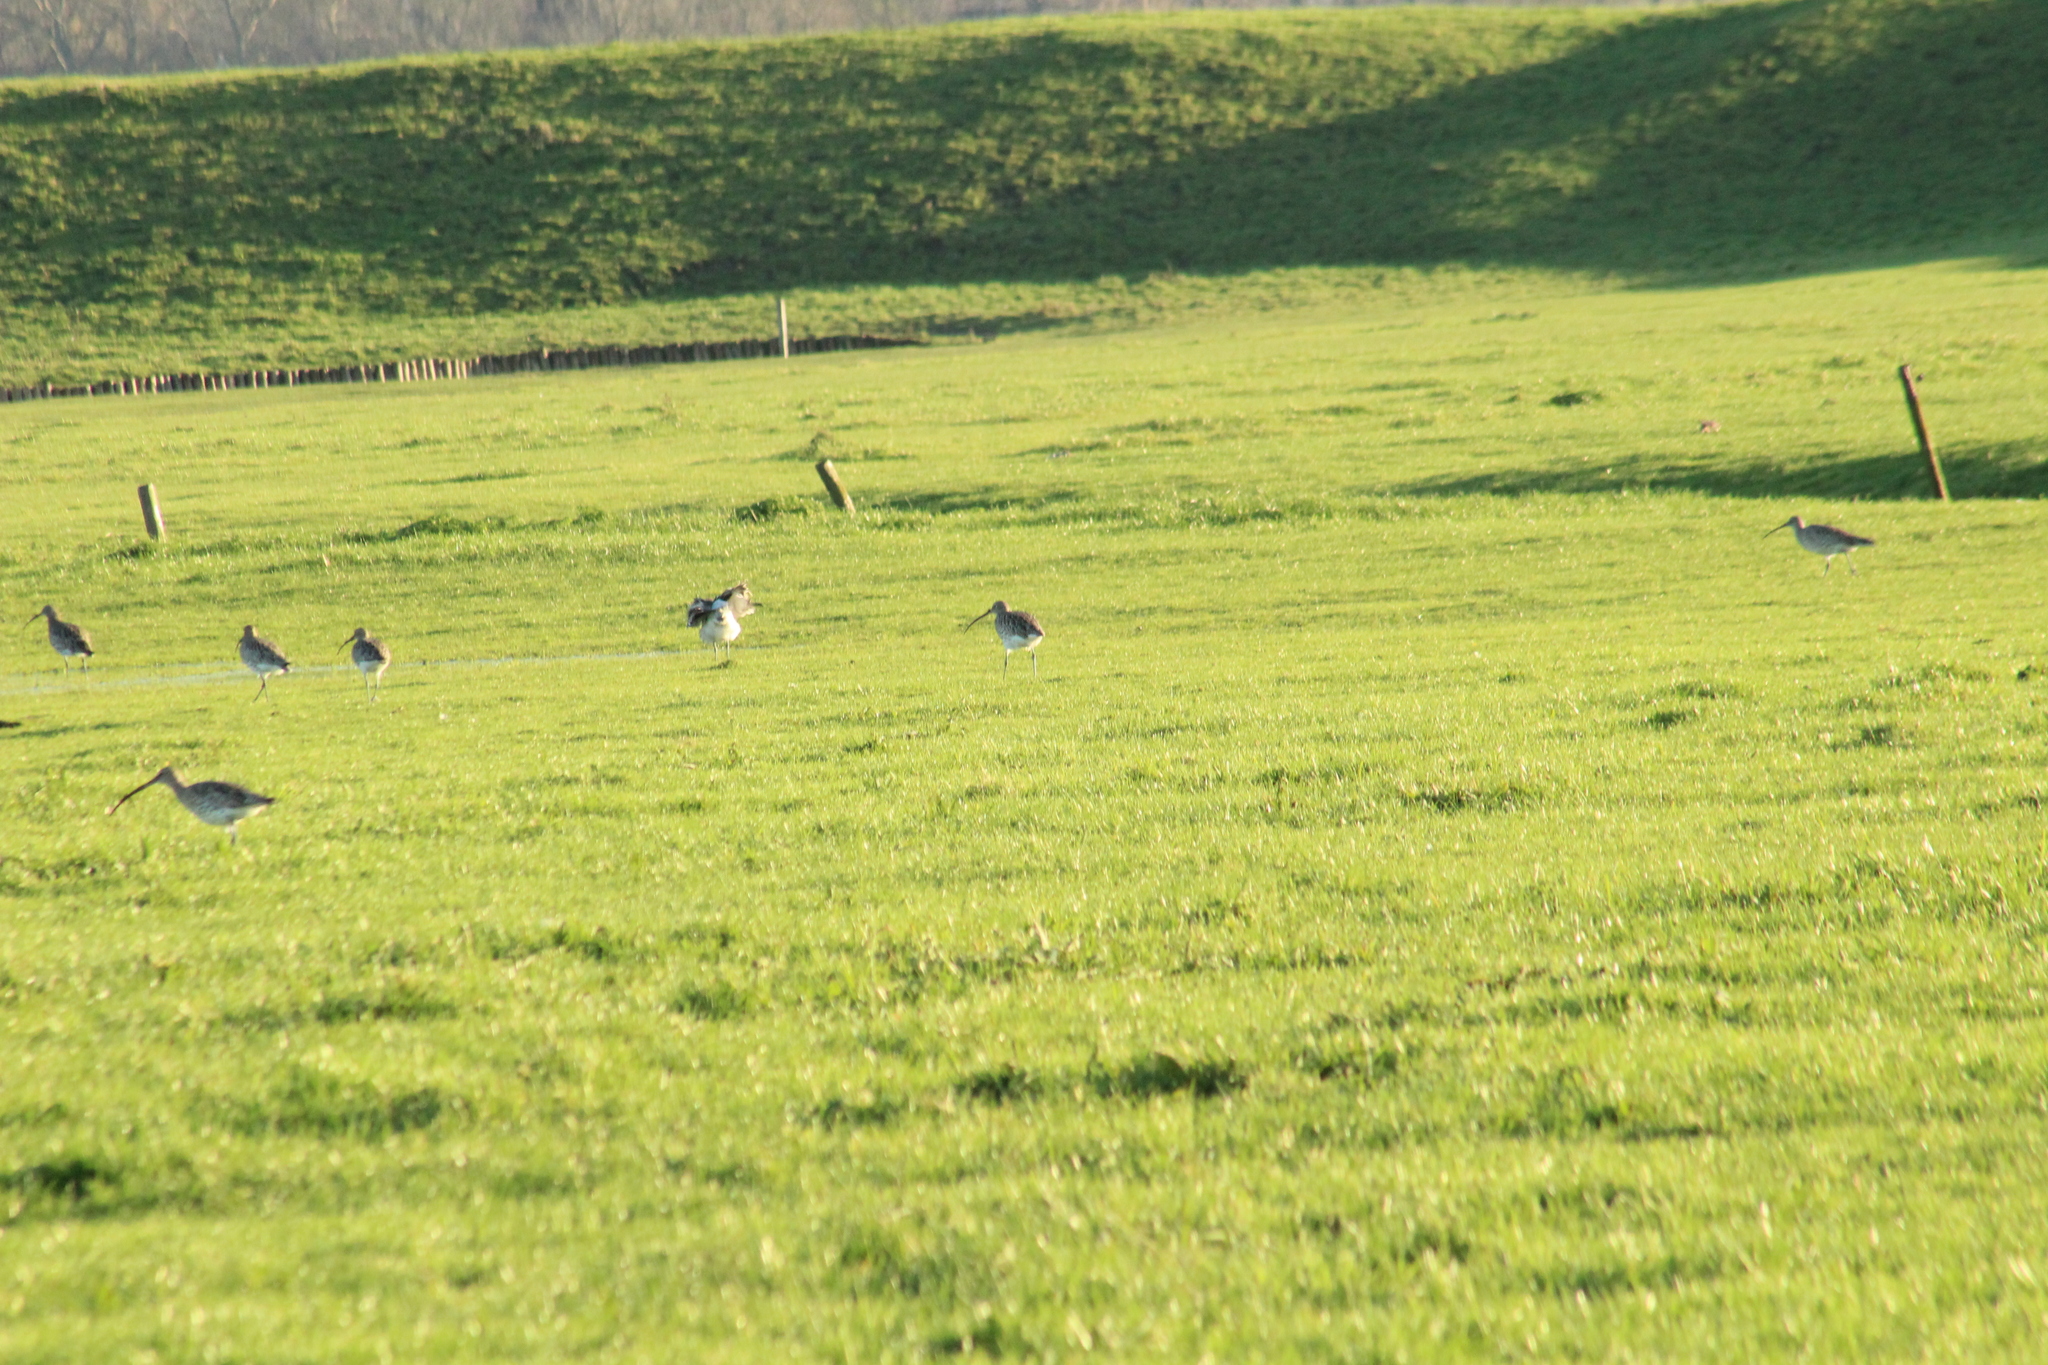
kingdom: Animalia
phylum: Chordata
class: Aves
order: Charadriiformes
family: Scolopacidae
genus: Numenius
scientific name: Numenius arquata
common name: Eurasian curlew
